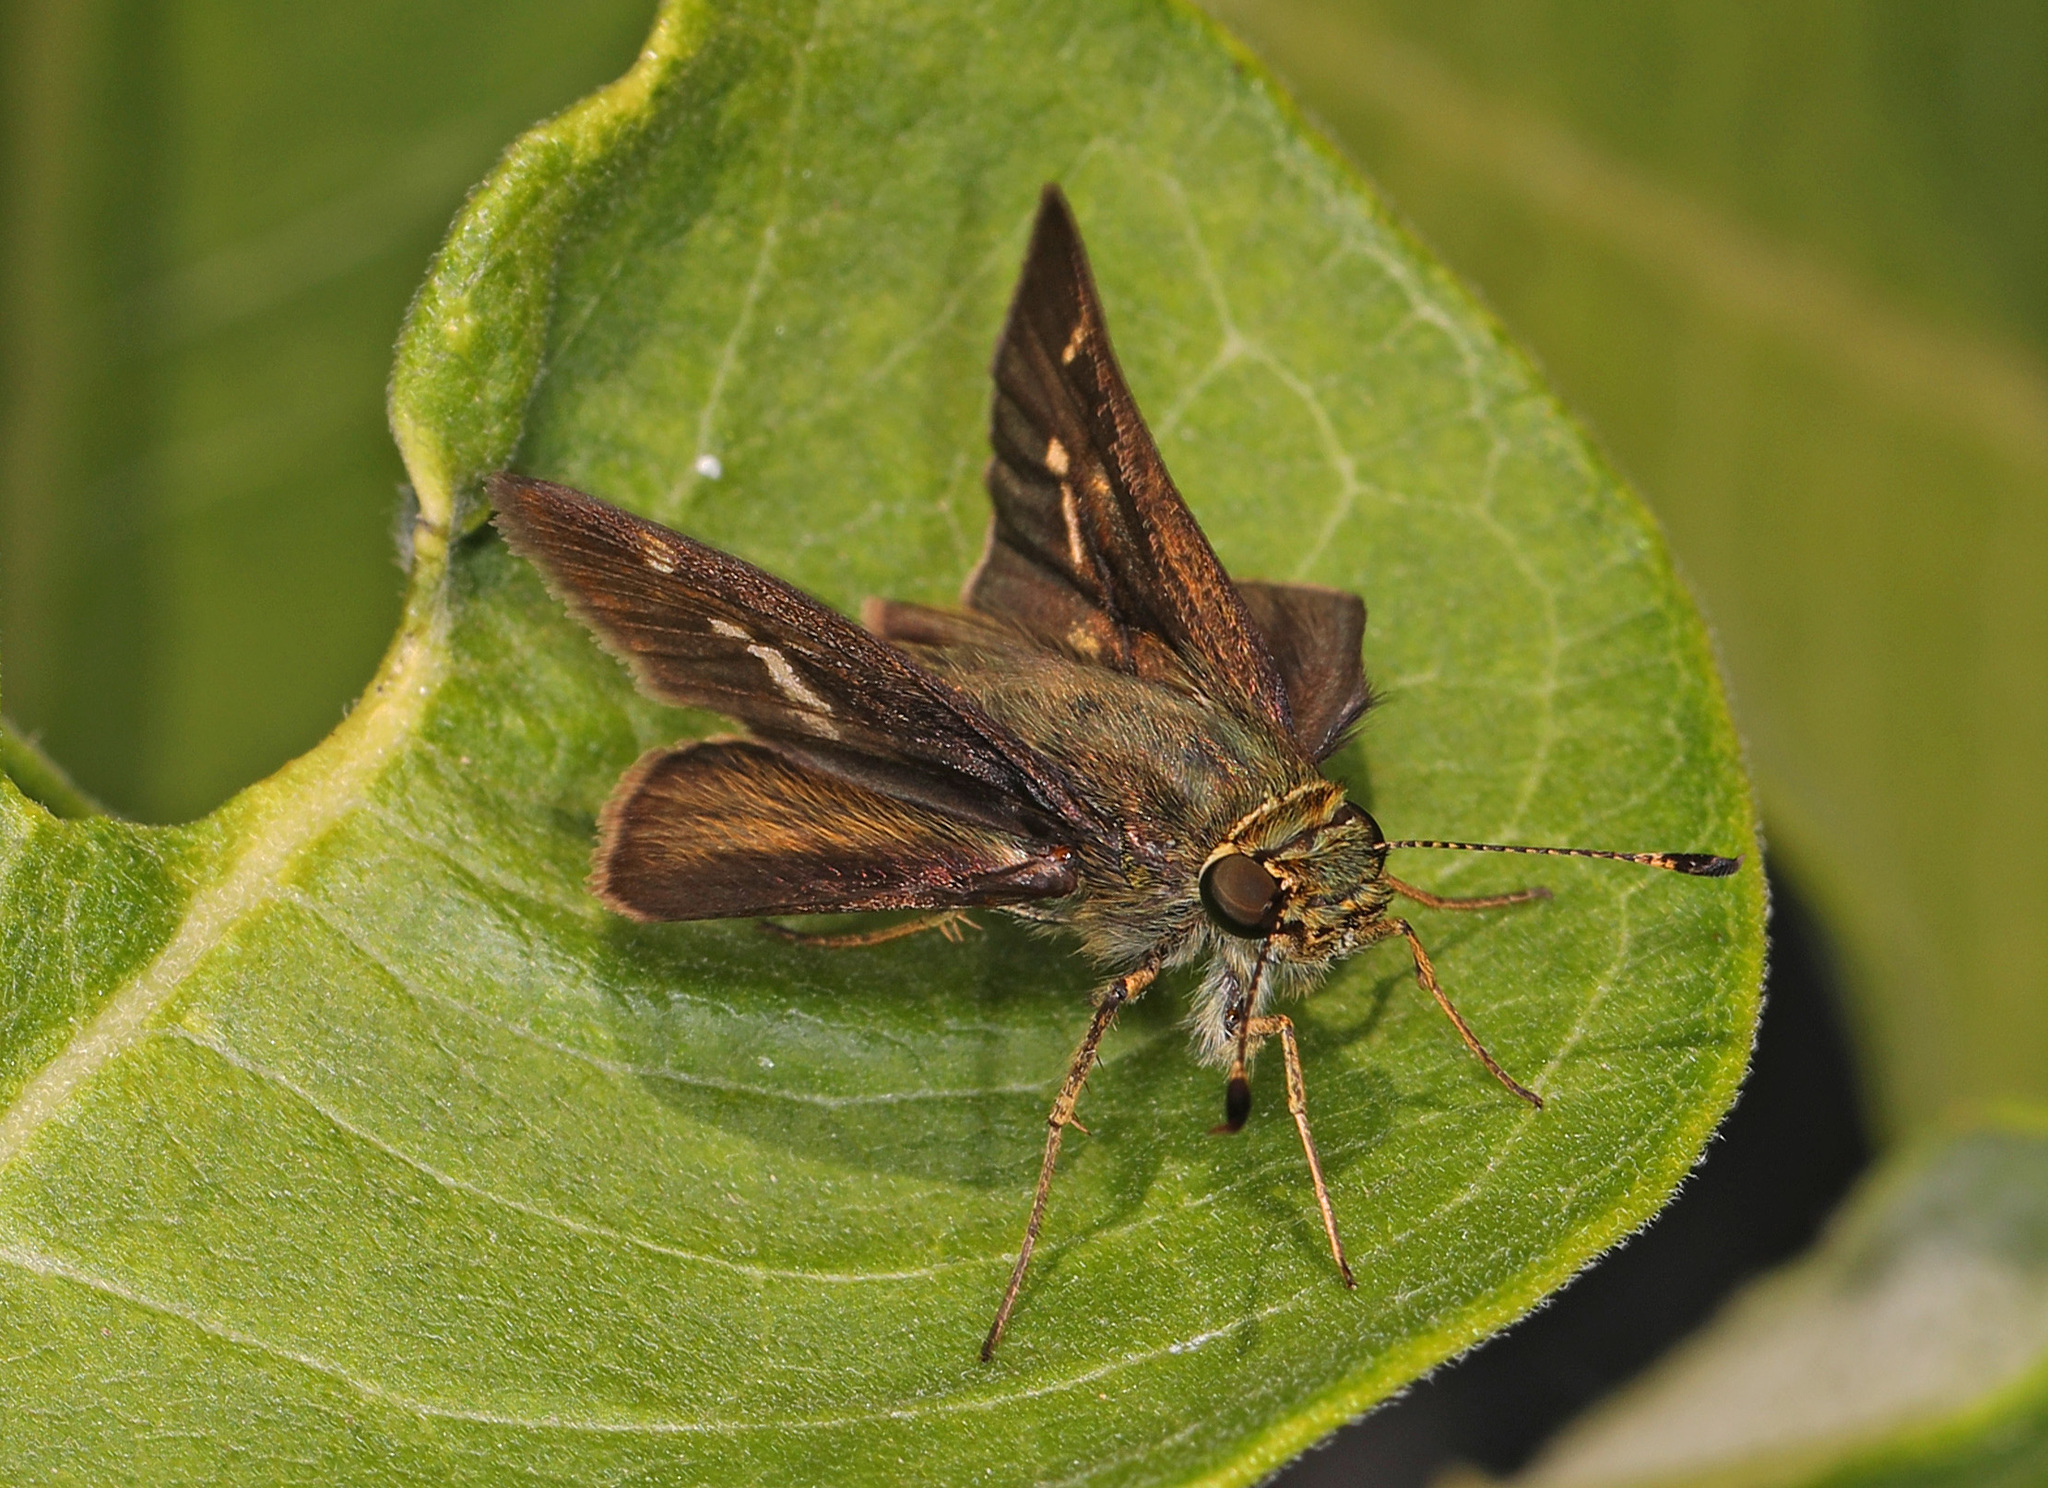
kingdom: Animalia
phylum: Arthropoda
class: Insecta
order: Lepidoptera
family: Hesperiidae
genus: Vernia
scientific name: Vernia verna
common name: Little glassywing
